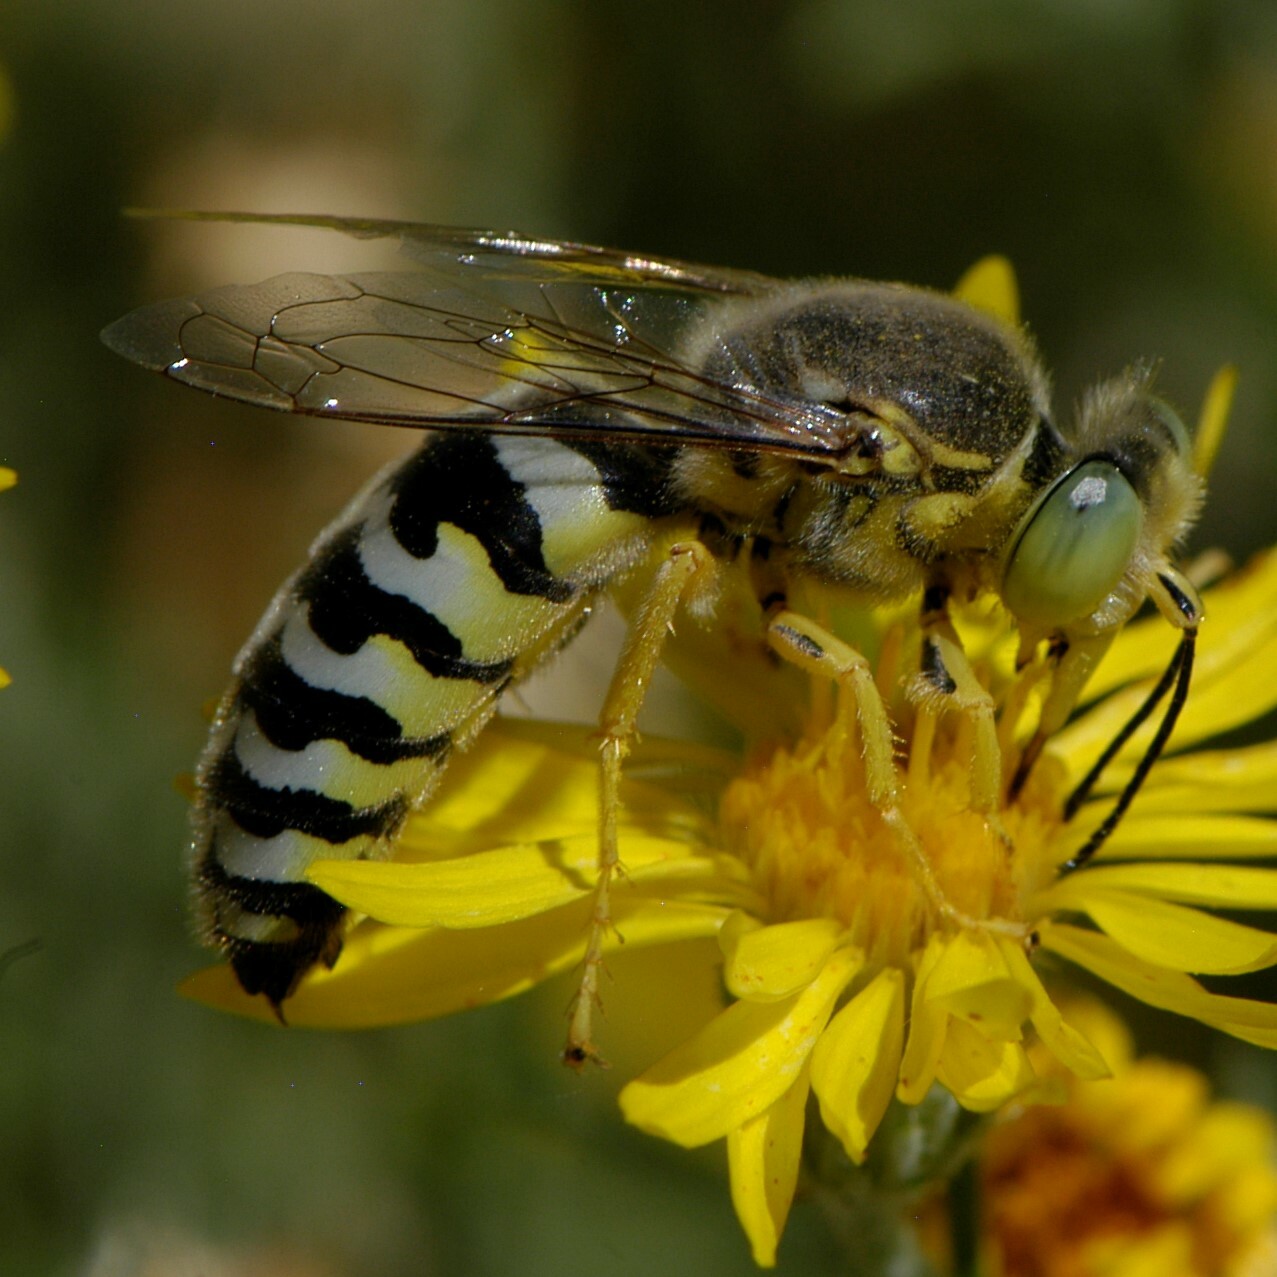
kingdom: Animalia
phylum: Arthropoda
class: Insecta
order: Hymenoptera
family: Crabronidae
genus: Bembix
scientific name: Bembix americana
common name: American sand wasp
